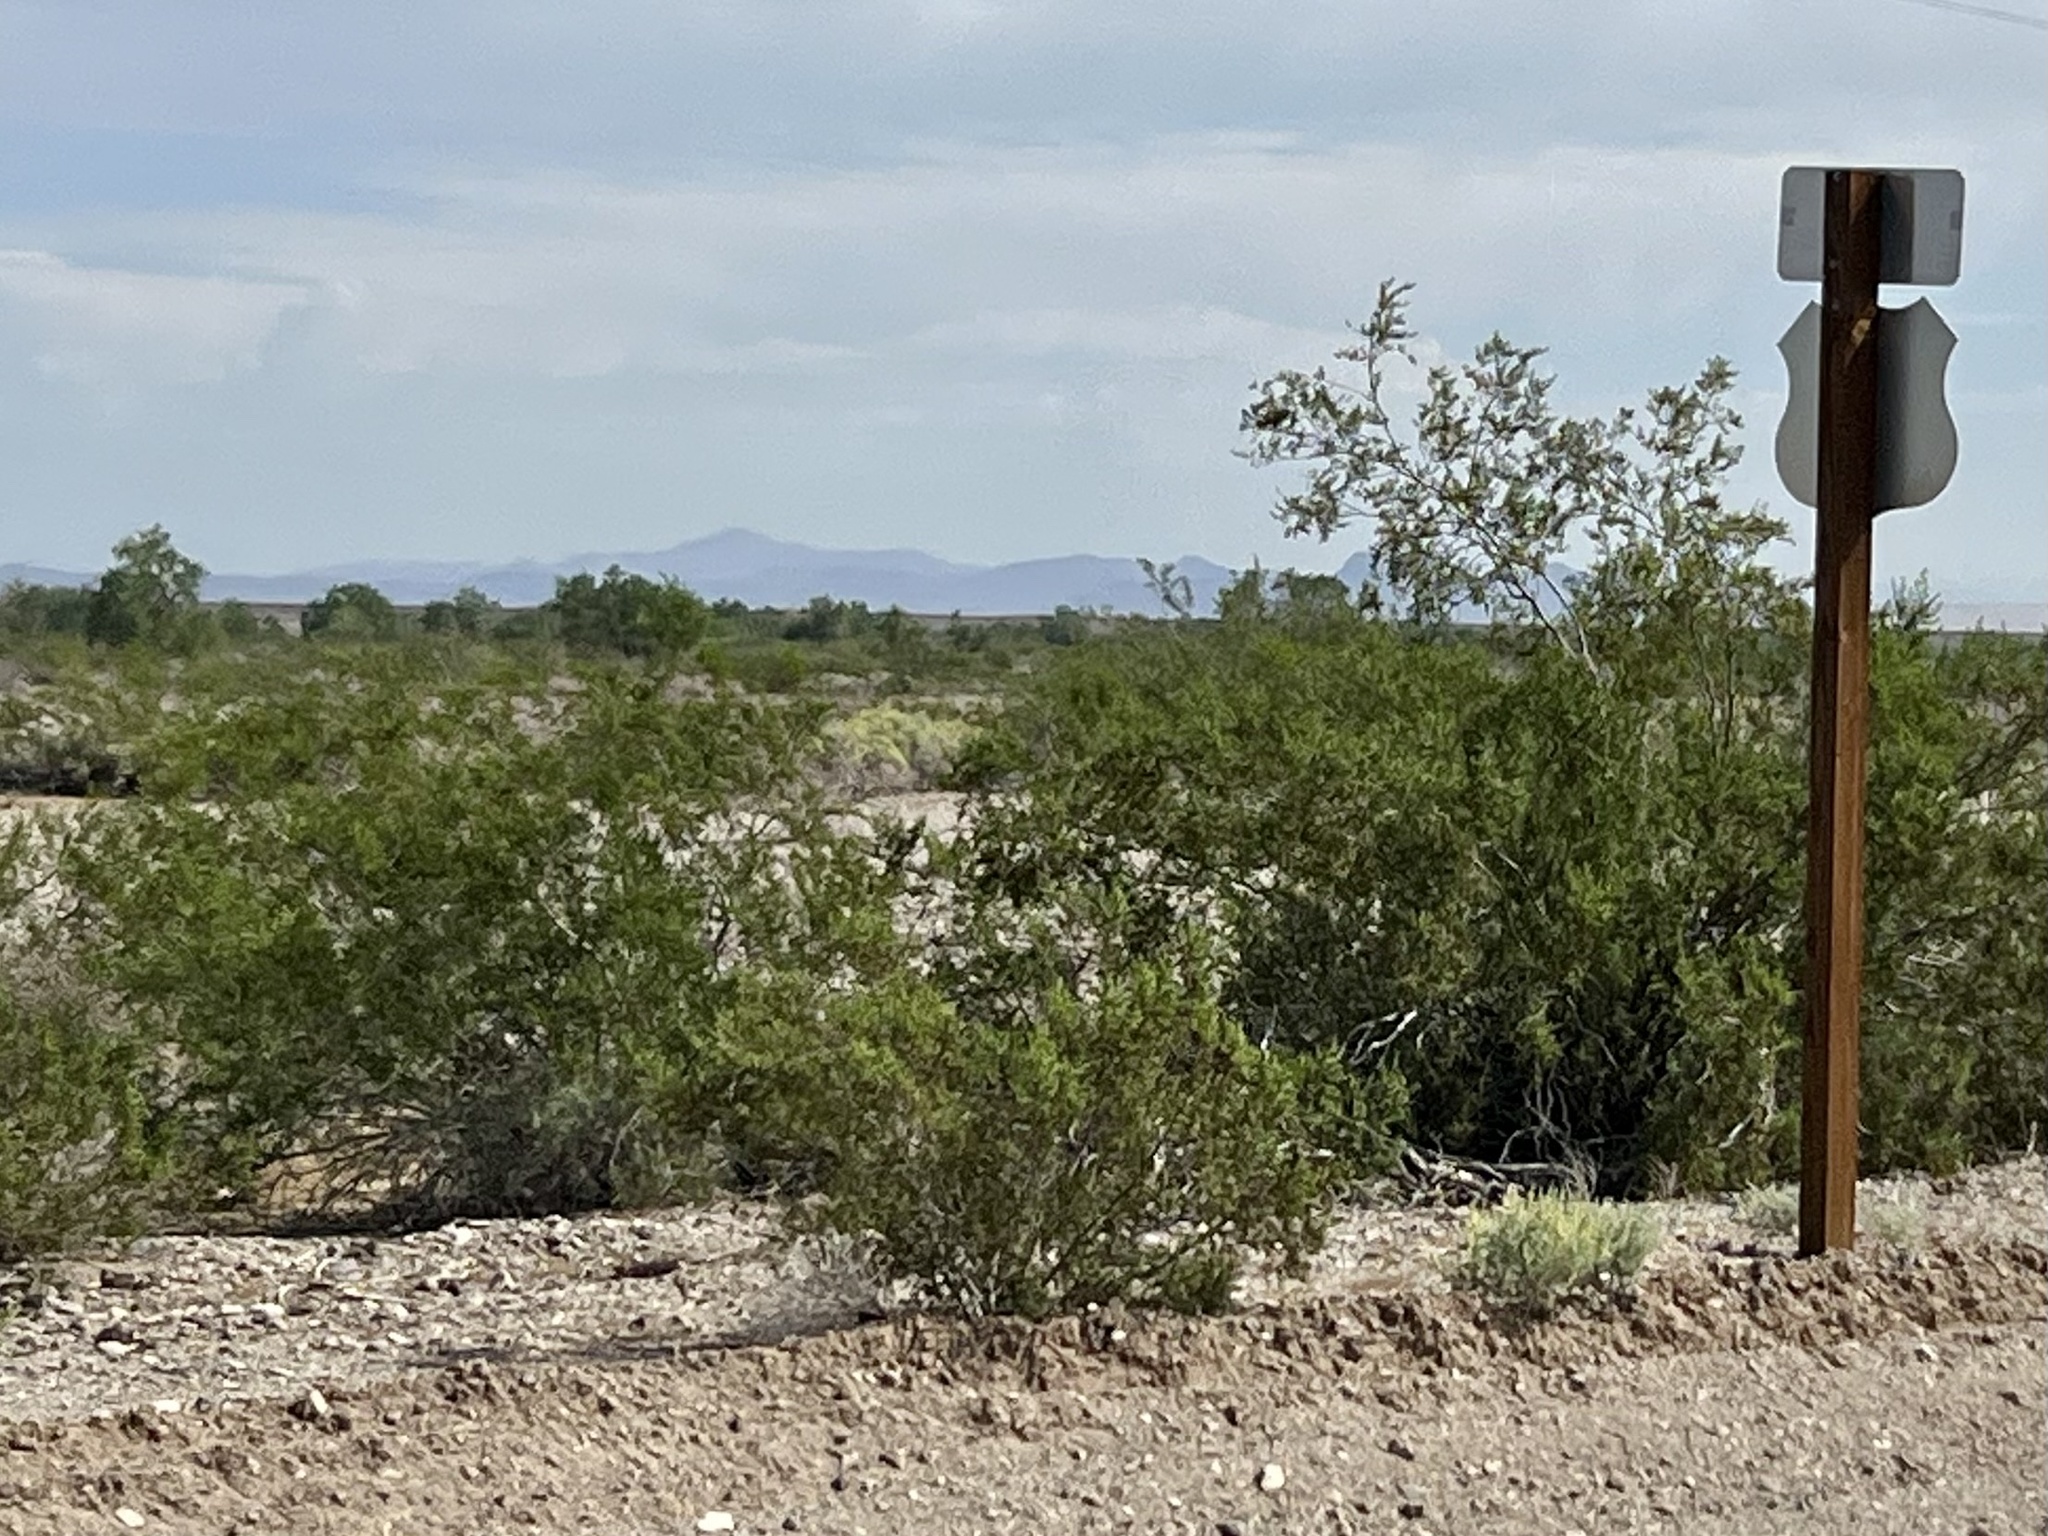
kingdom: Plantae
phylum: Tracheophyta
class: Magnoliopsida
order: Zygophyllales
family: Zygophyllaceae
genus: Larrea
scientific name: Larrea tridentata
